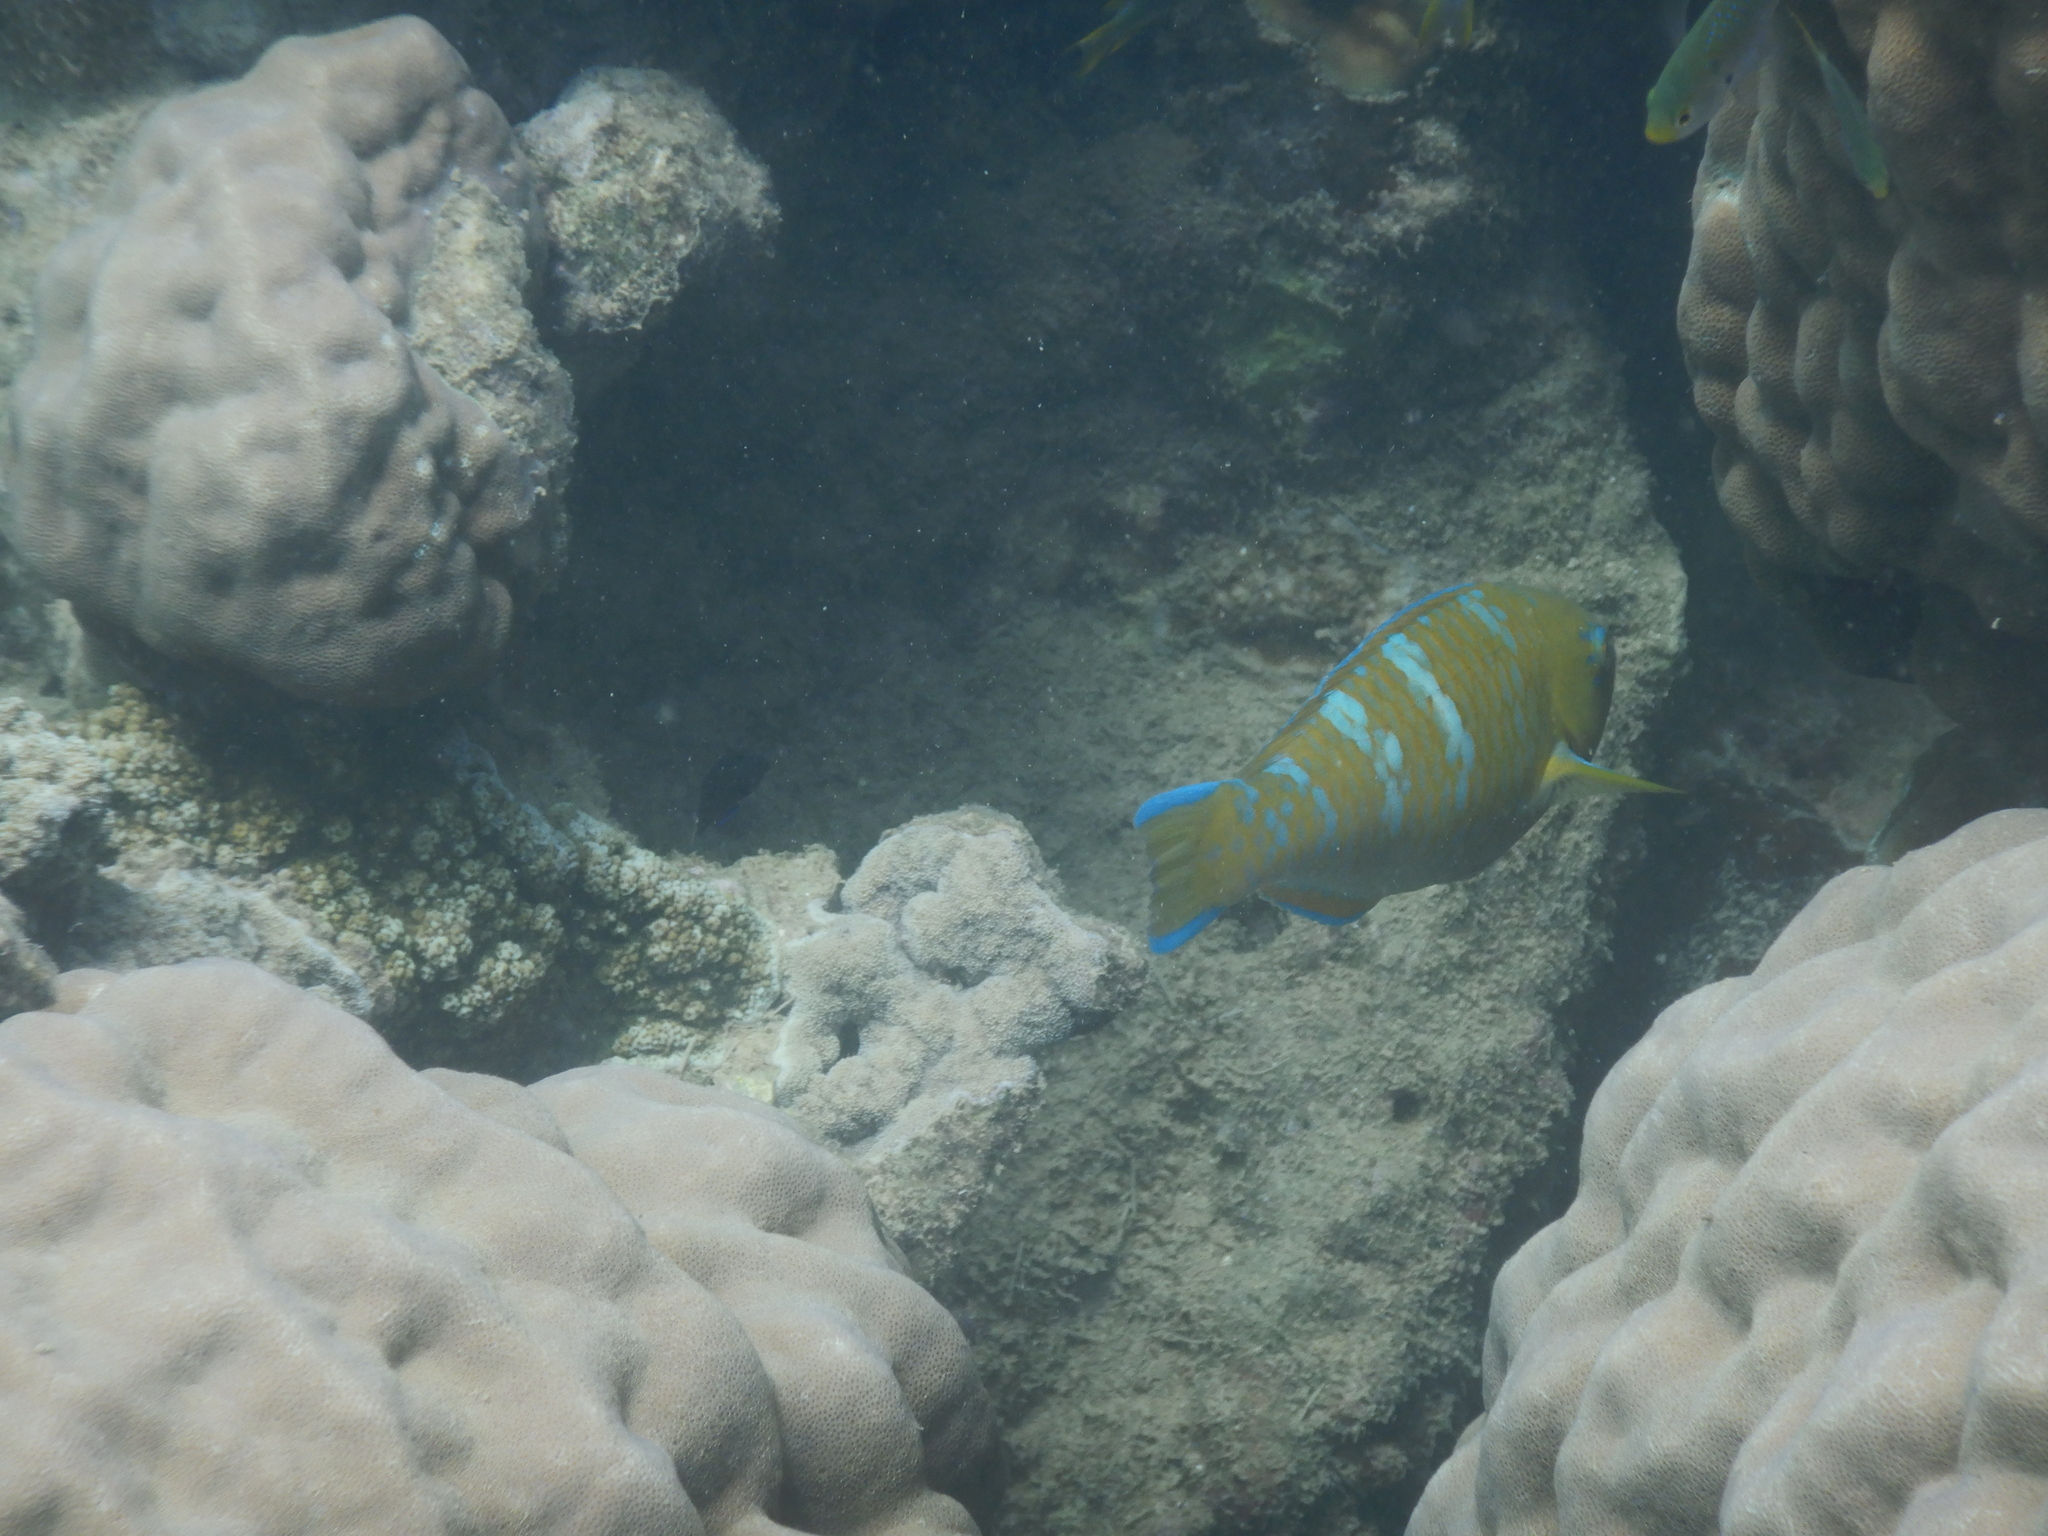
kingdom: Animalia
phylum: Chordata
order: Perciformes
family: Scaridae
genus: Scarus
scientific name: Scarus ghobban
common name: Blue-barred parrotfish
